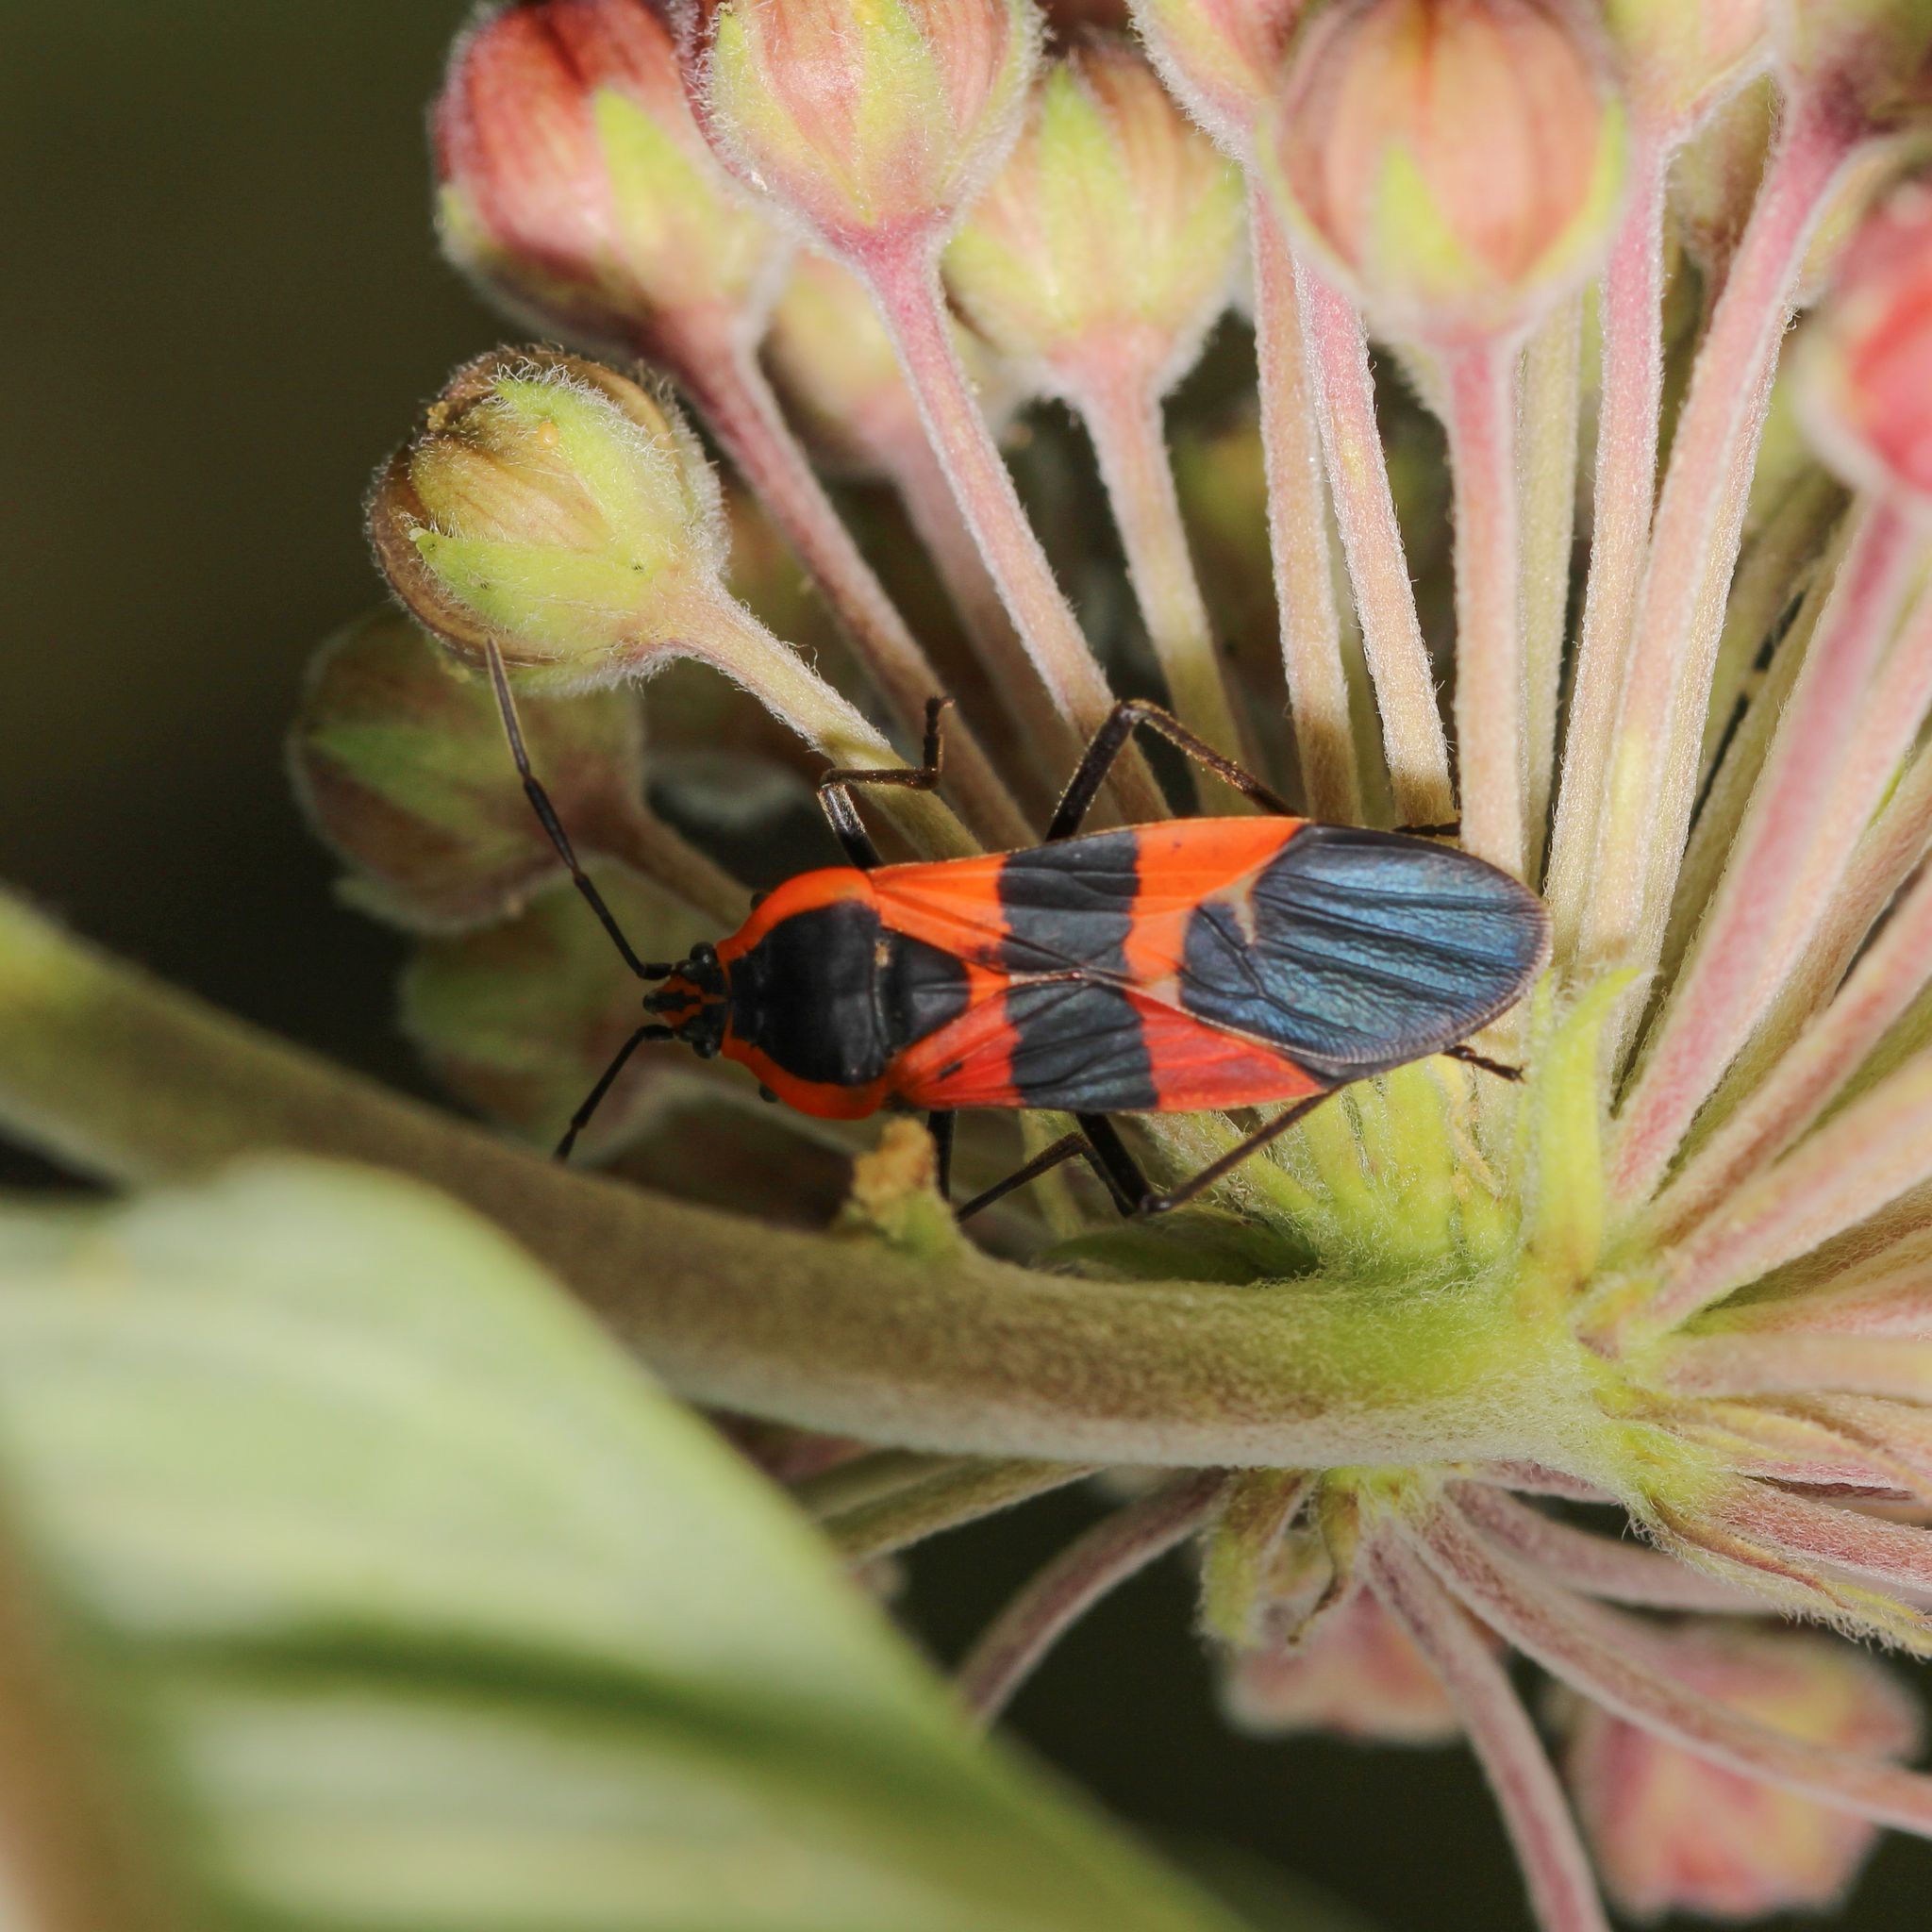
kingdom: Animalia
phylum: Arthropoda
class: Insecta
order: Hemiptera
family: Lygaeidae
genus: Oncopeltus
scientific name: Oncopeltus fasciatus
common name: Large milkweed bug
